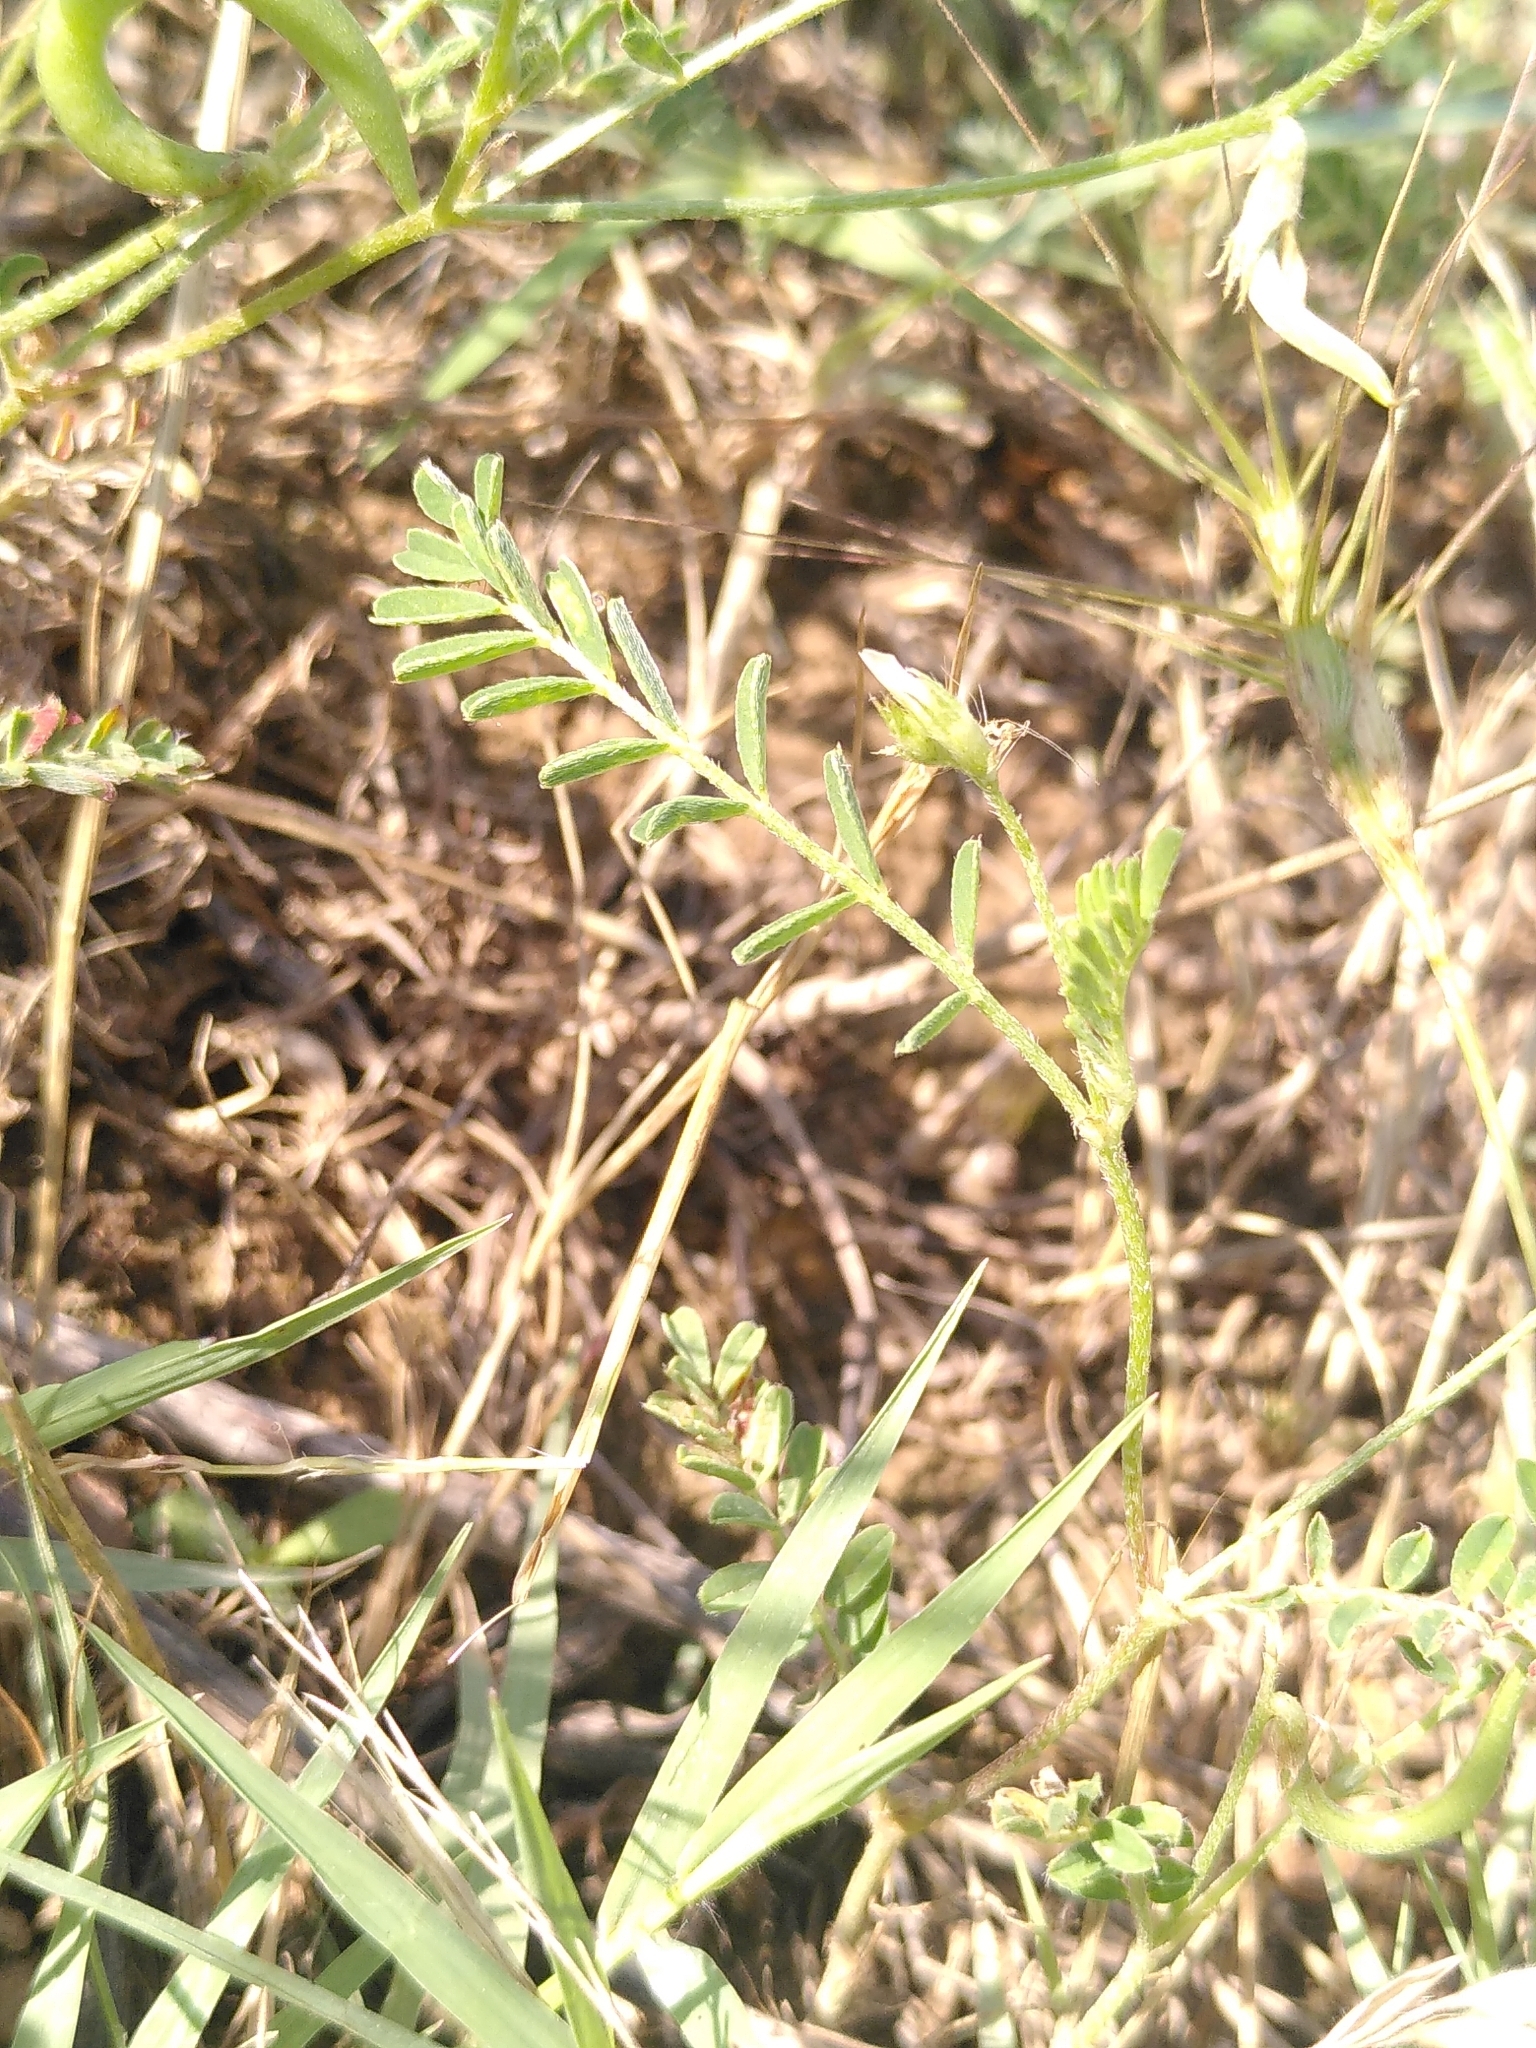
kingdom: Plantae
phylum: Tracheophyta
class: Magnoliopsida
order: Fabales
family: Fabaceae
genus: Astragalus
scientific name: Astragalus hamosus
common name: European milkvetch
